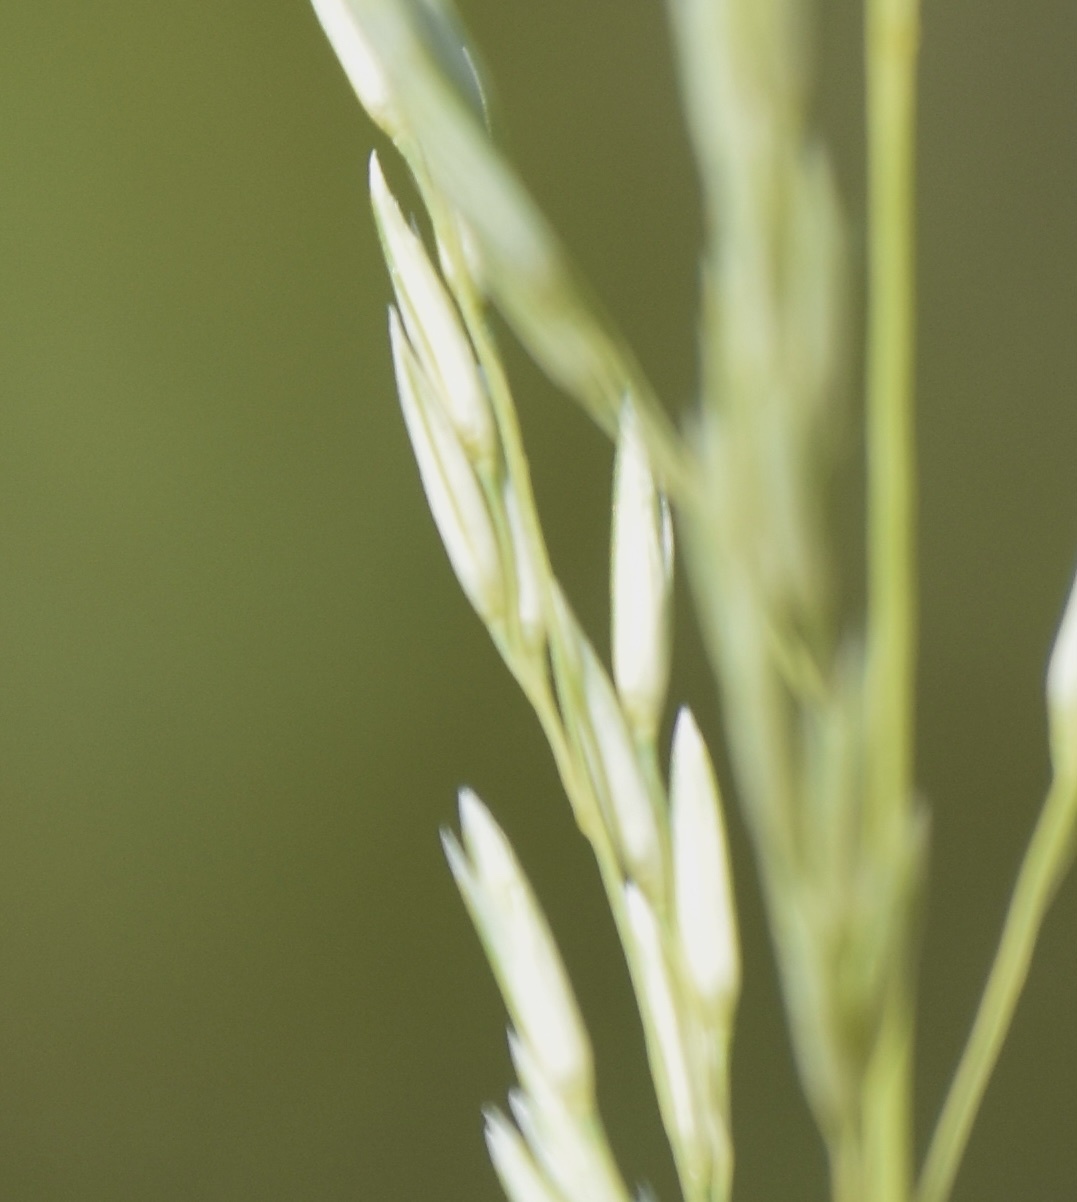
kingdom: Plantae
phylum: Tracheophyta
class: Liliopsida
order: Poales
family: Poaceae
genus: Sporobolus
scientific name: Sporobolus rigidus
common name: Prairie sandreed
